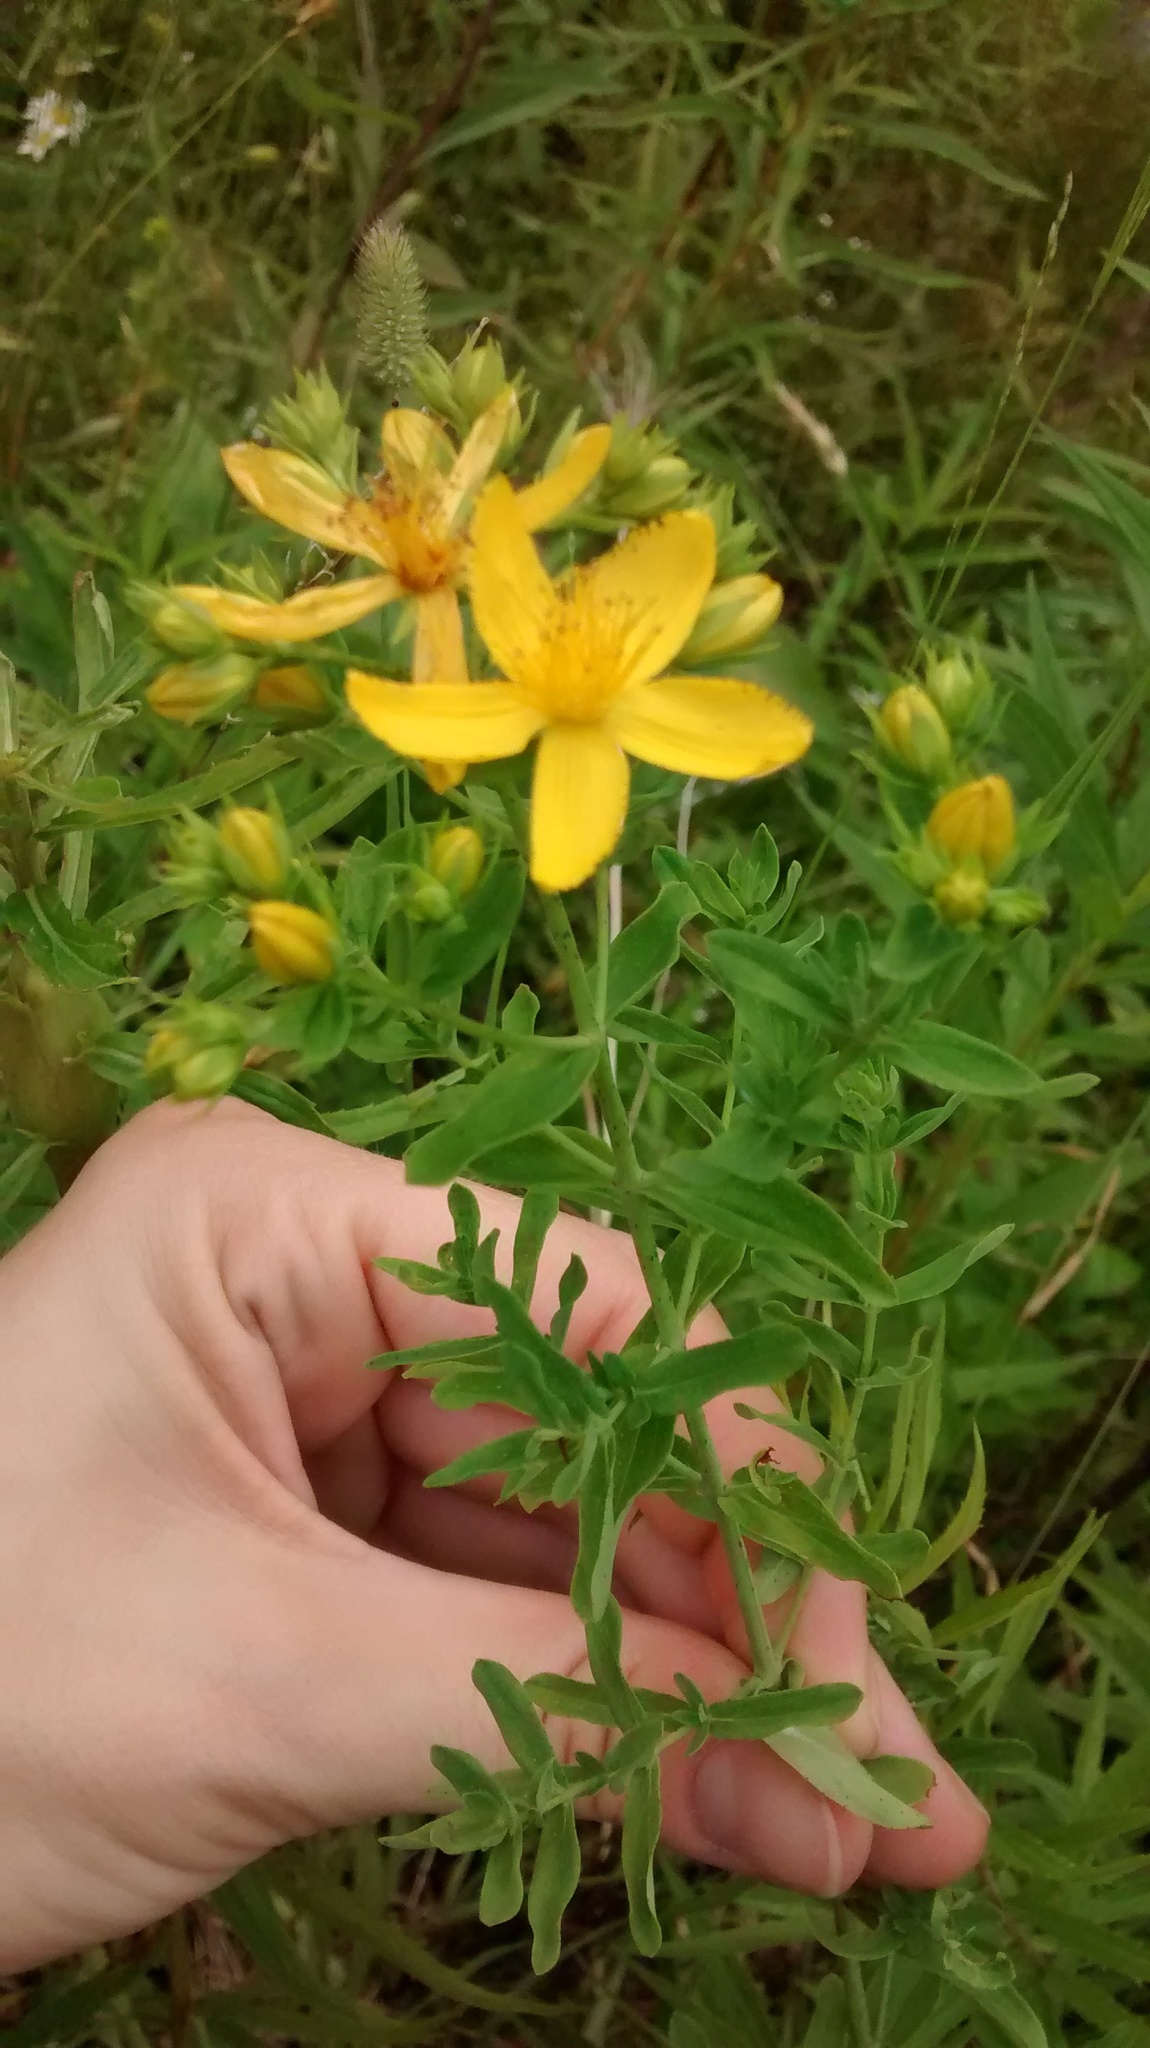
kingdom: Plantae
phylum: Tracheophyta
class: Magnoliopsida
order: Malpighiales
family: Hypericaceae
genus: Hypericum
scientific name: Hypericum perforatum
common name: Common st. johnswort
